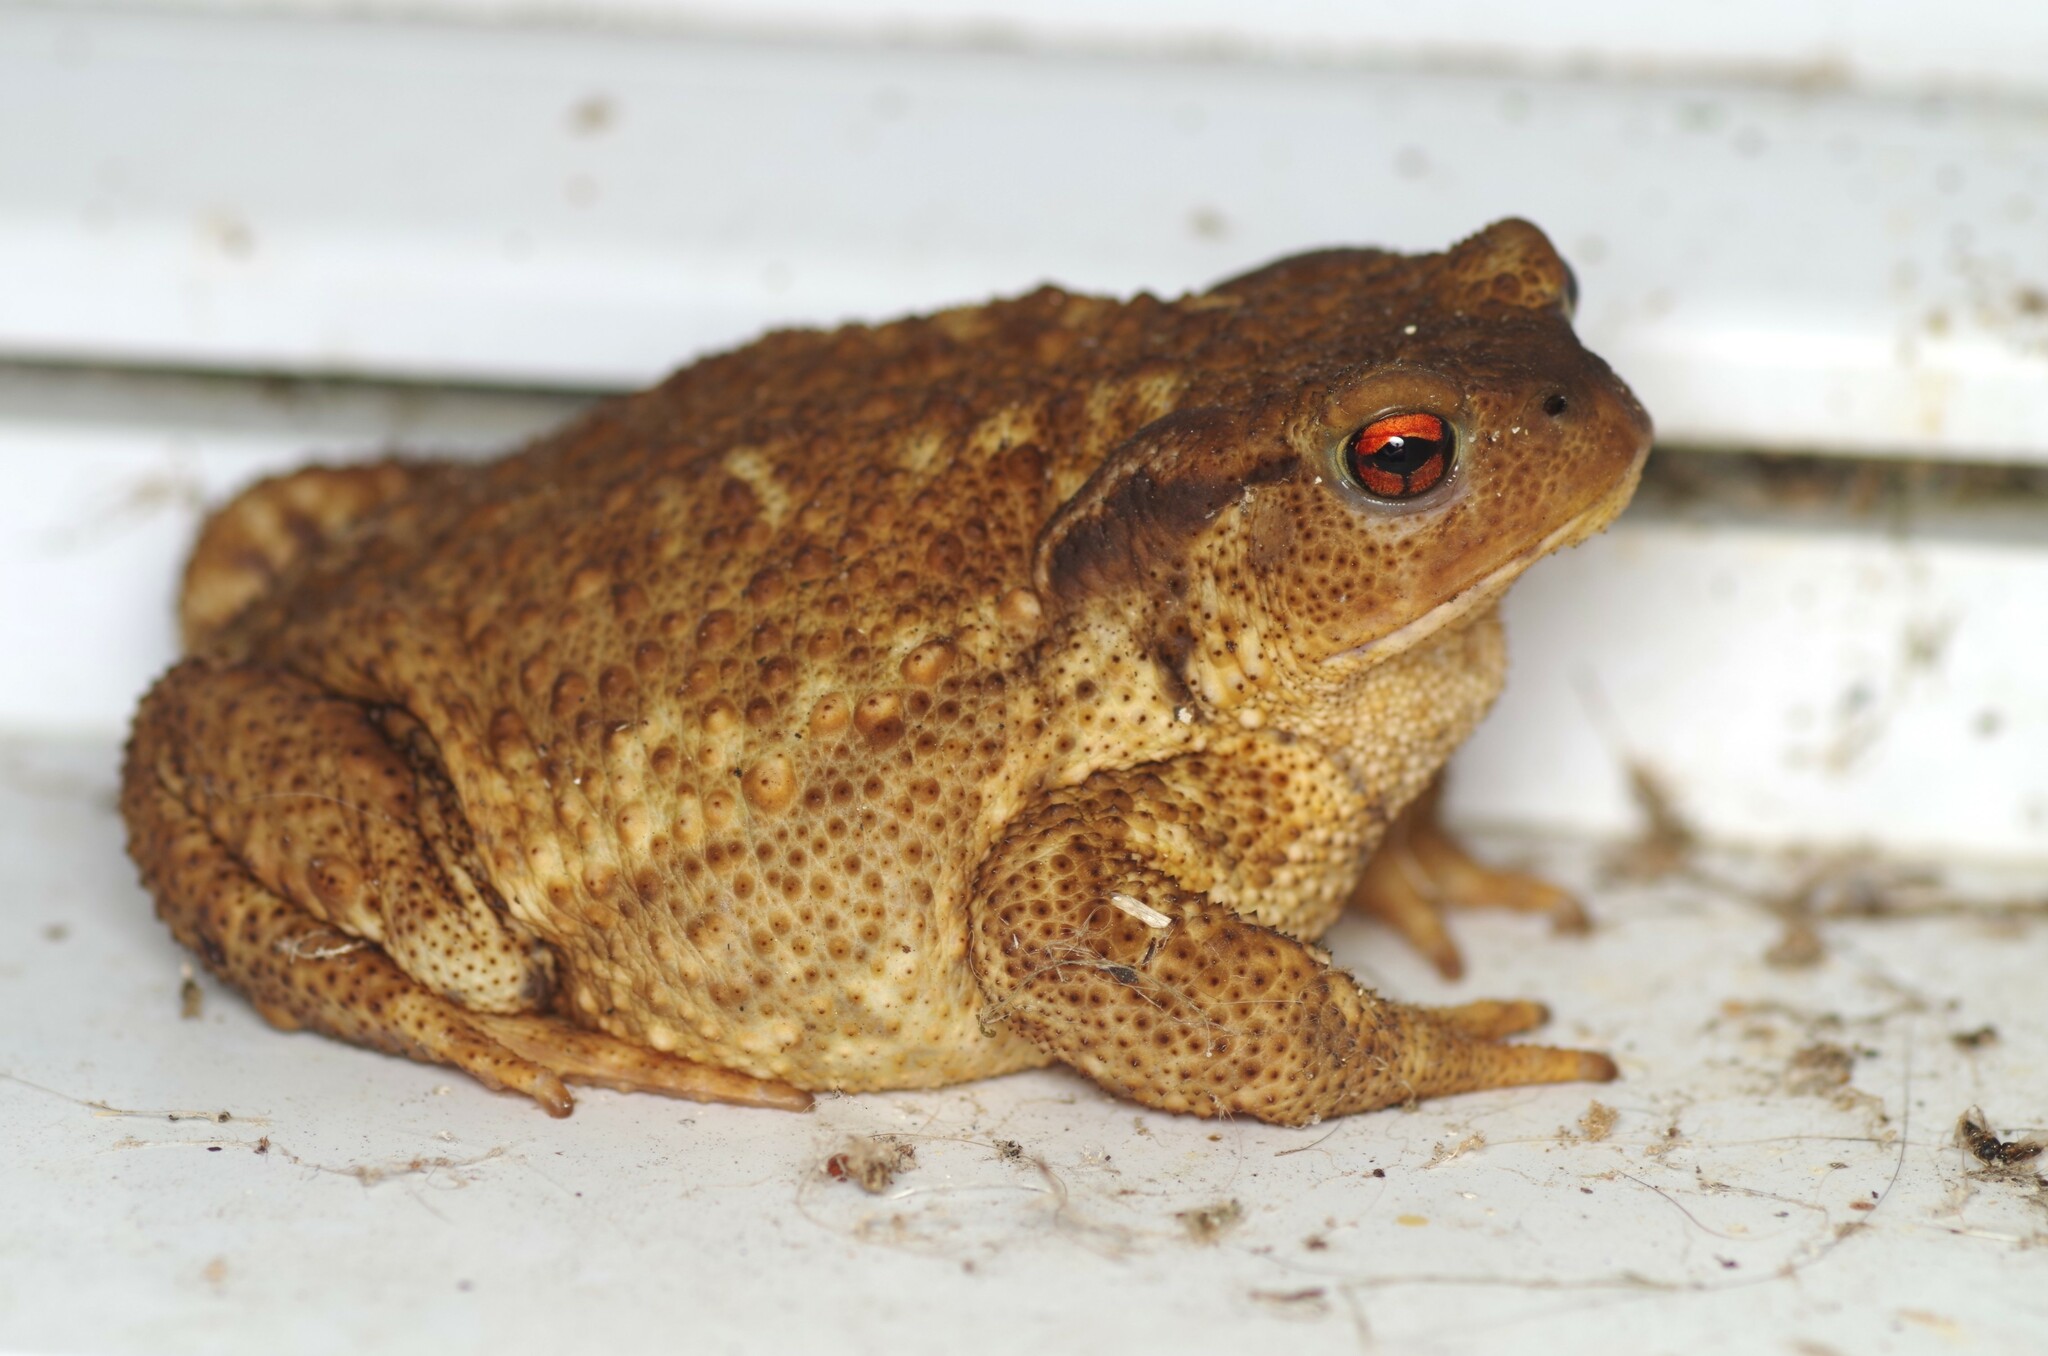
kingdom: Animalia
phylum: Chordata
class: Amphibia
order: Anura
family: Bufonidae
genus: Bufo
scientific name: Bufo spinosus
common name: Western common toad
